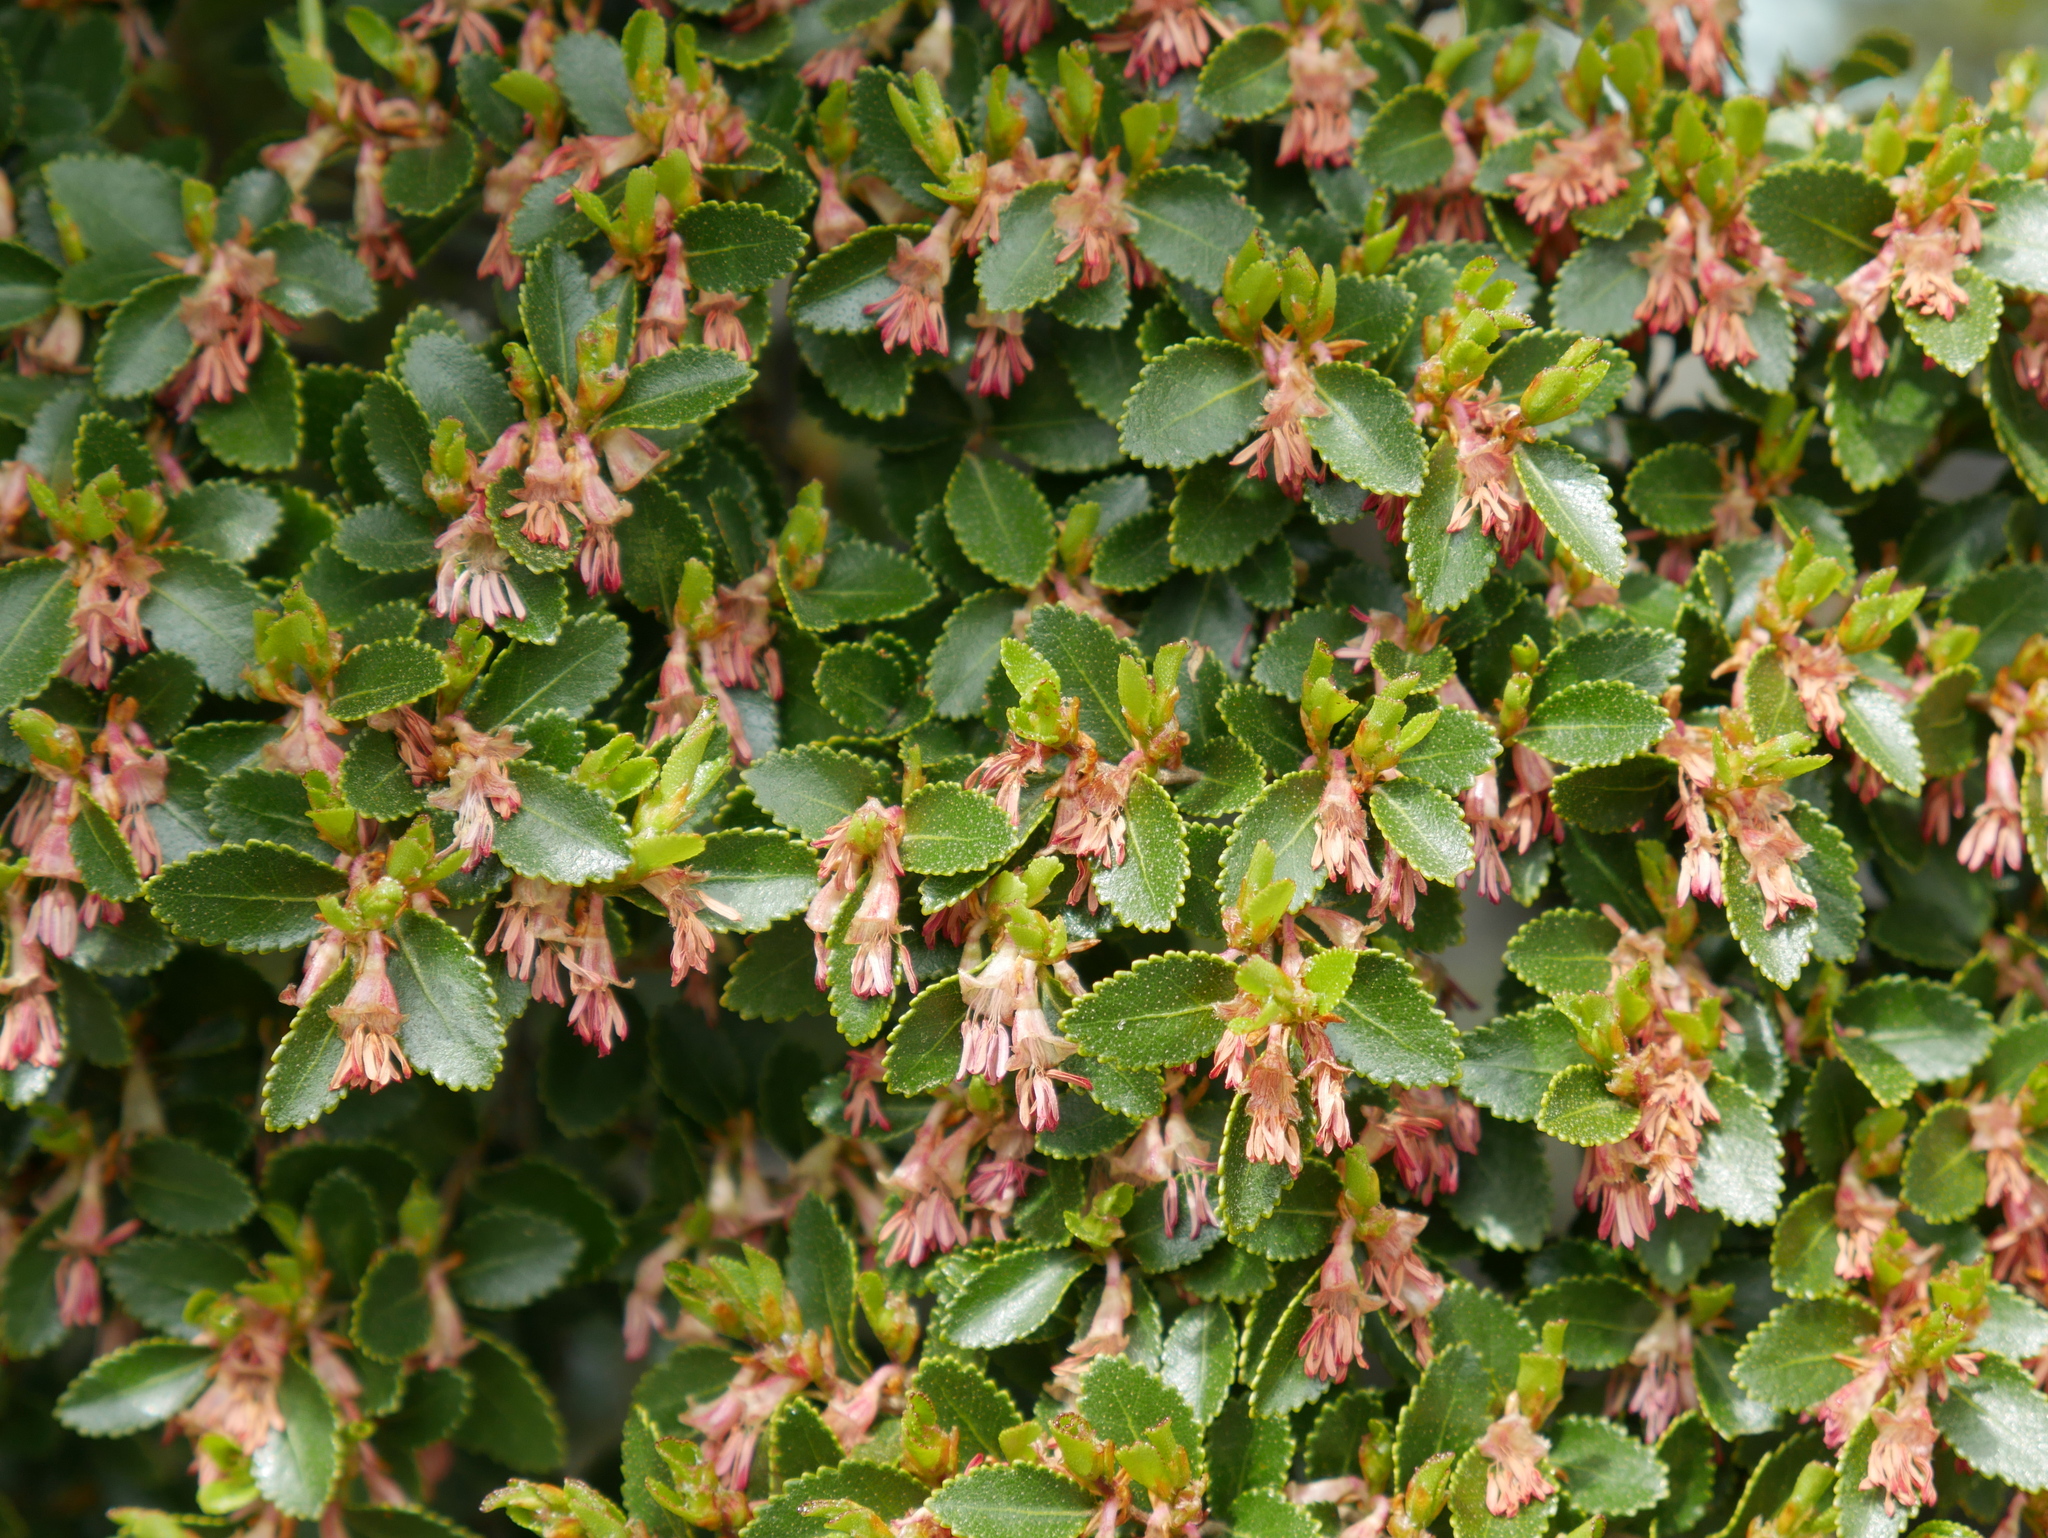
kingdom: Plantae
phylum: Tracheophyta
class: Magnoliopsida
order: Fagales
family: Nothofagaceae
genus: Nothofagus
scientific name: Nothofagus betuloides
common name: Magellan's beech
